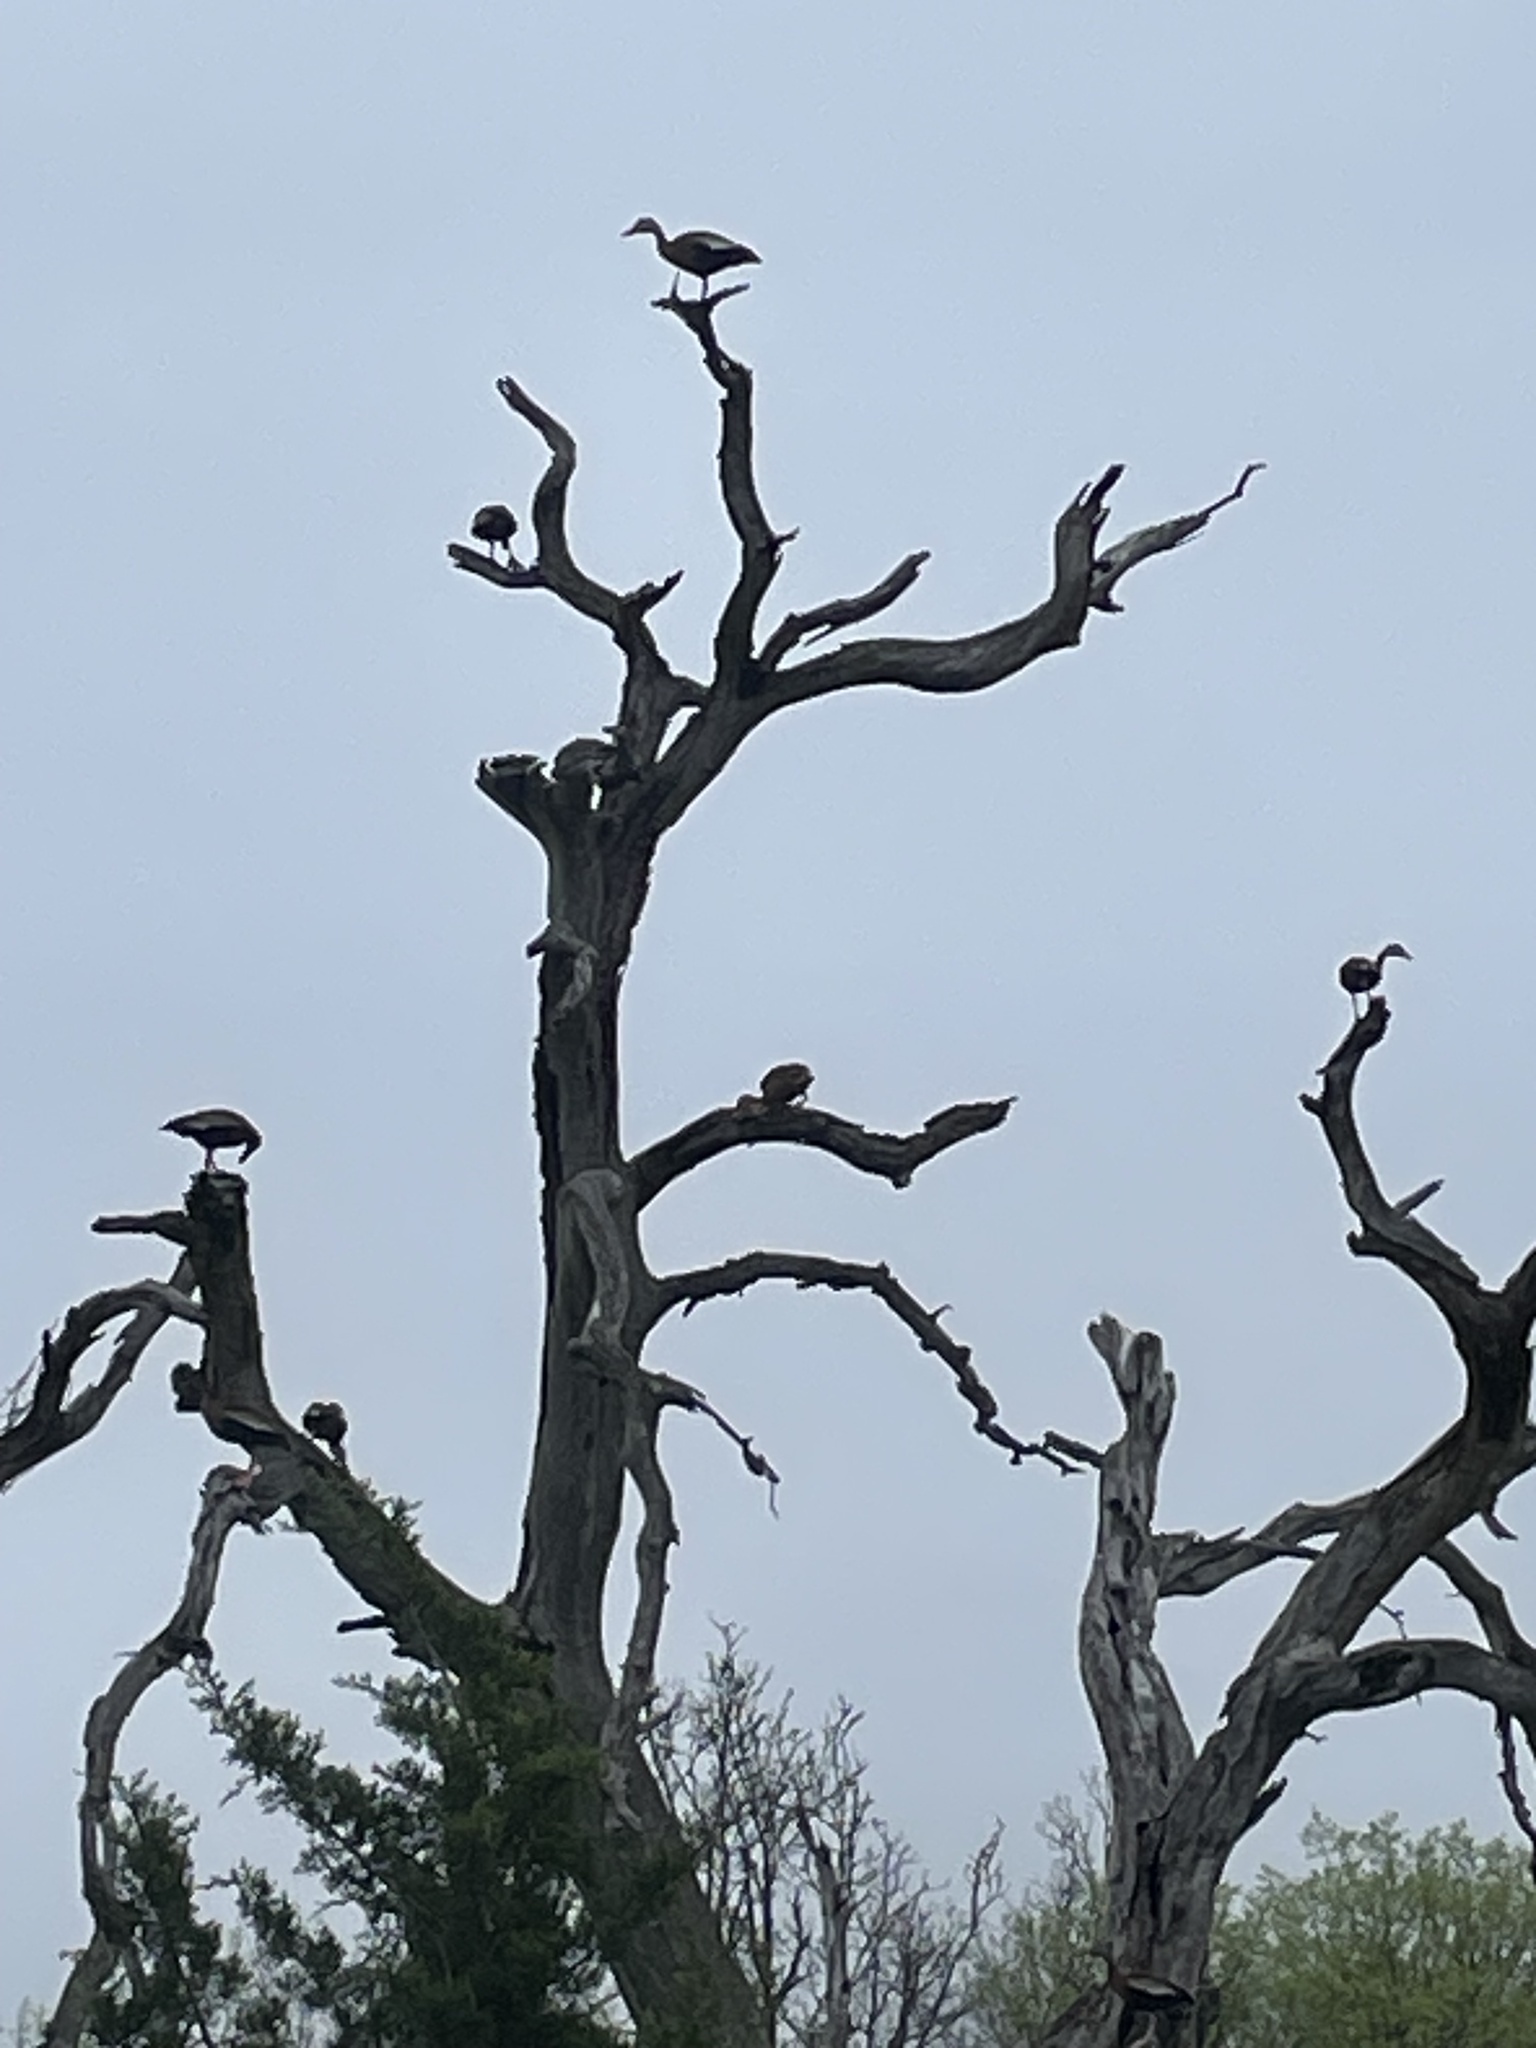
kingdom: Animalia
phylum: Chordata
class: Aves
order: Anseriformes
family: Anatidae
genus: Dendrocygna
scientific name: Dendrocygna autumnalis
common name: Black-bellied whistling duck
